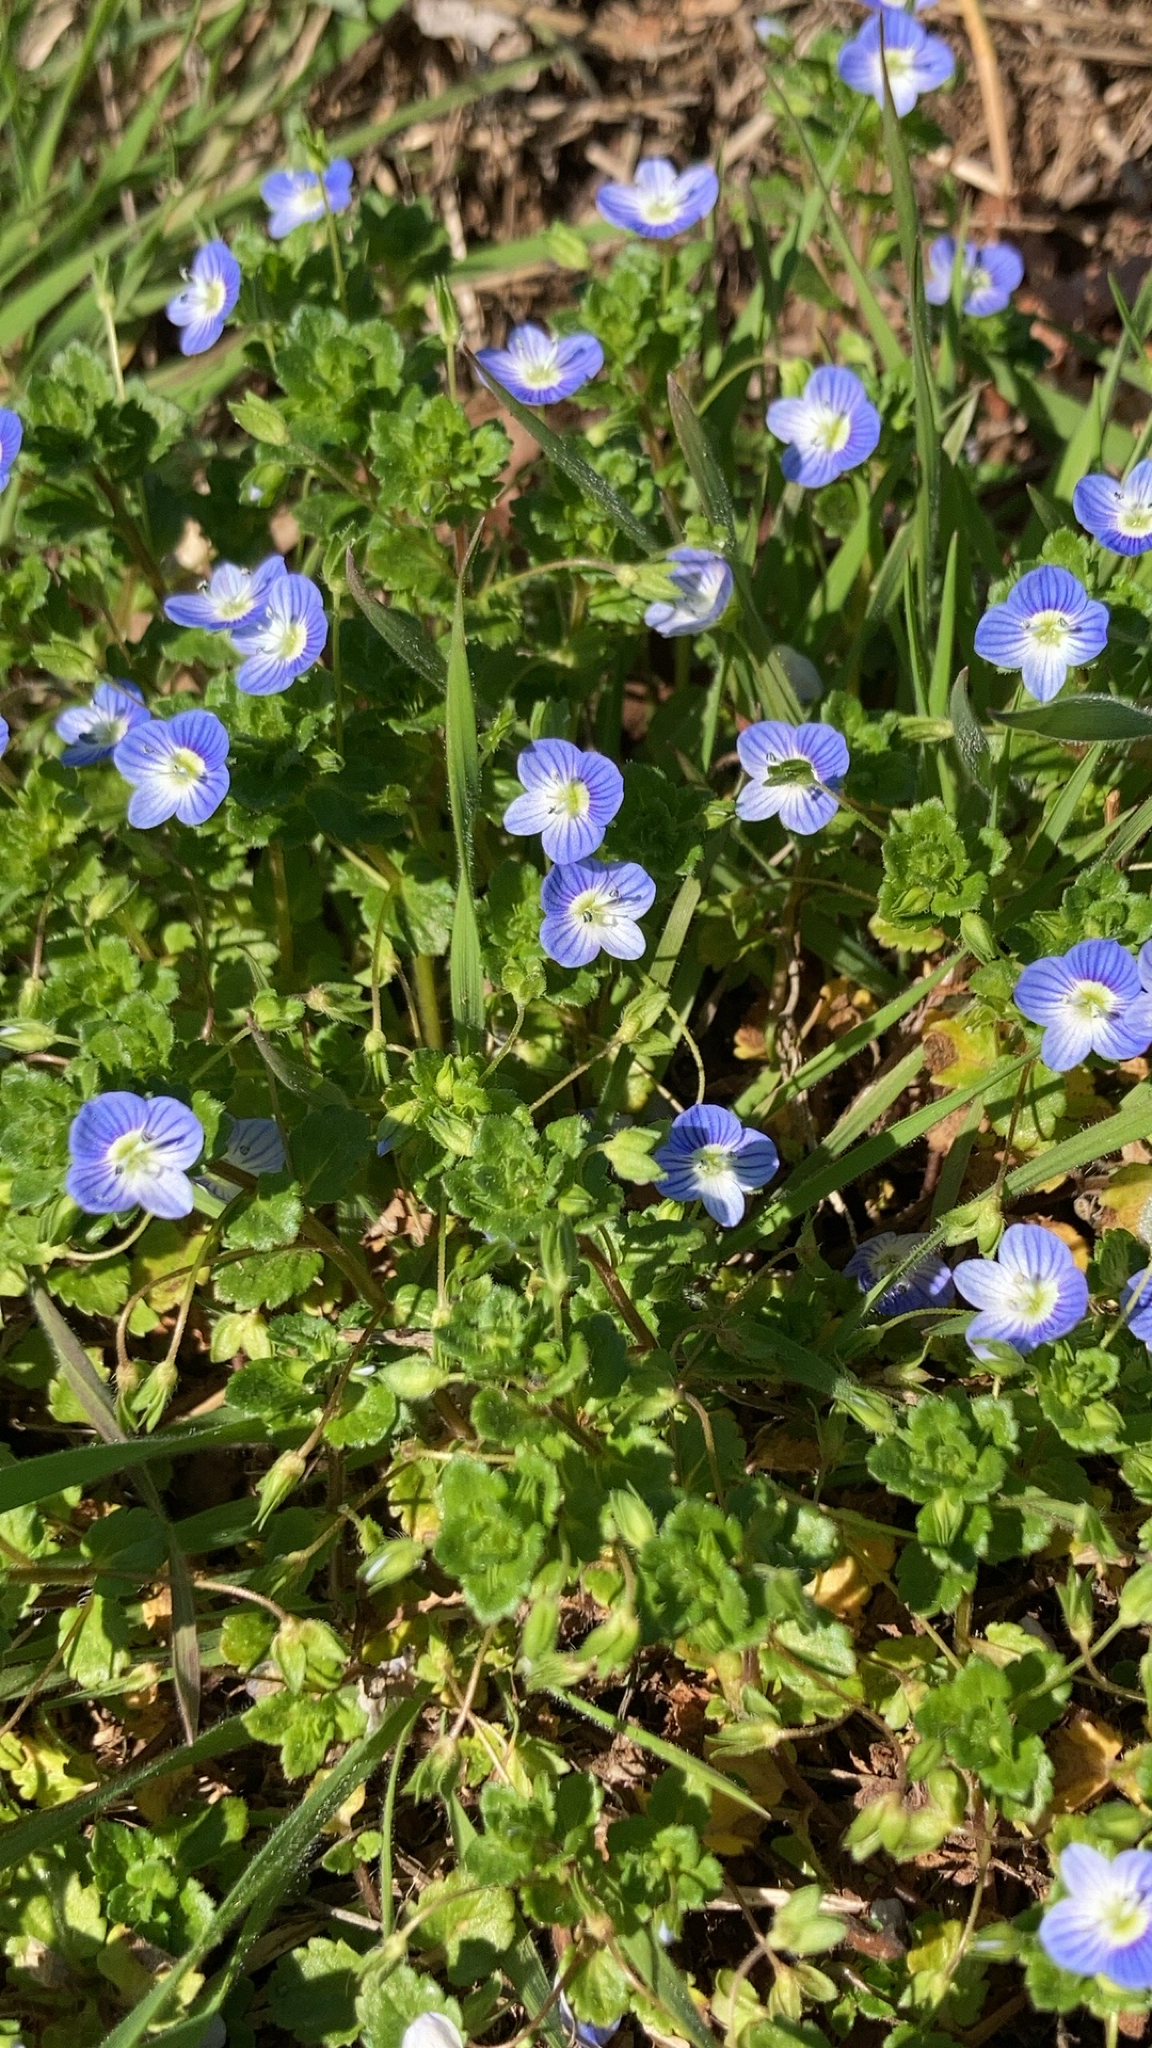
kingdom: Plantae
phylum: Tracheophyta
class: Magnoliopsida
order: Lamiales
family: Plantaginaceae
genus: Veronica
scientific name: Veronica persica
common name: Common field-speedwell
